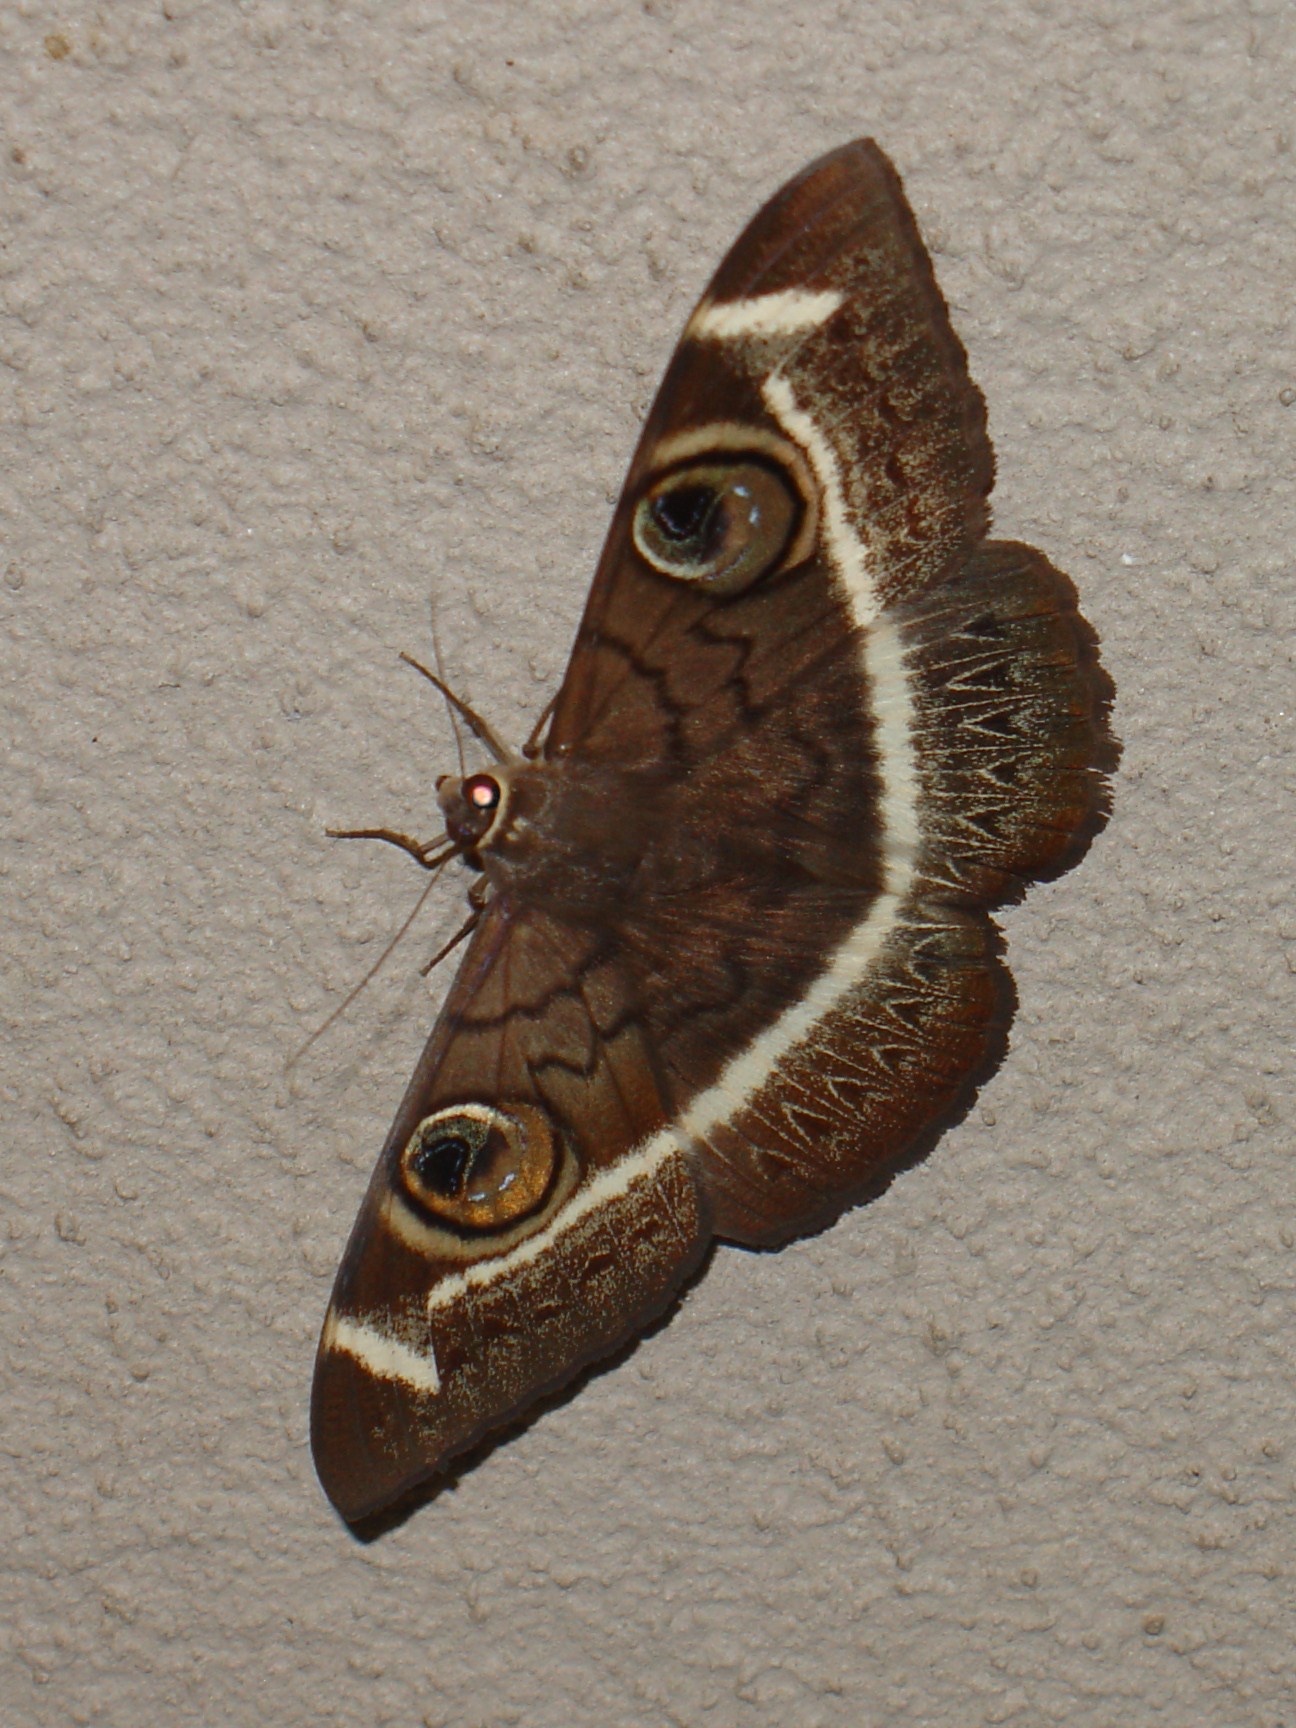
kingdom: Animalia
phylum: Arthropoda
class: Insecta
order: Lepidoptera
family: Erebidae
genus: Cyligramma
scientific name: Cyligramma latona
